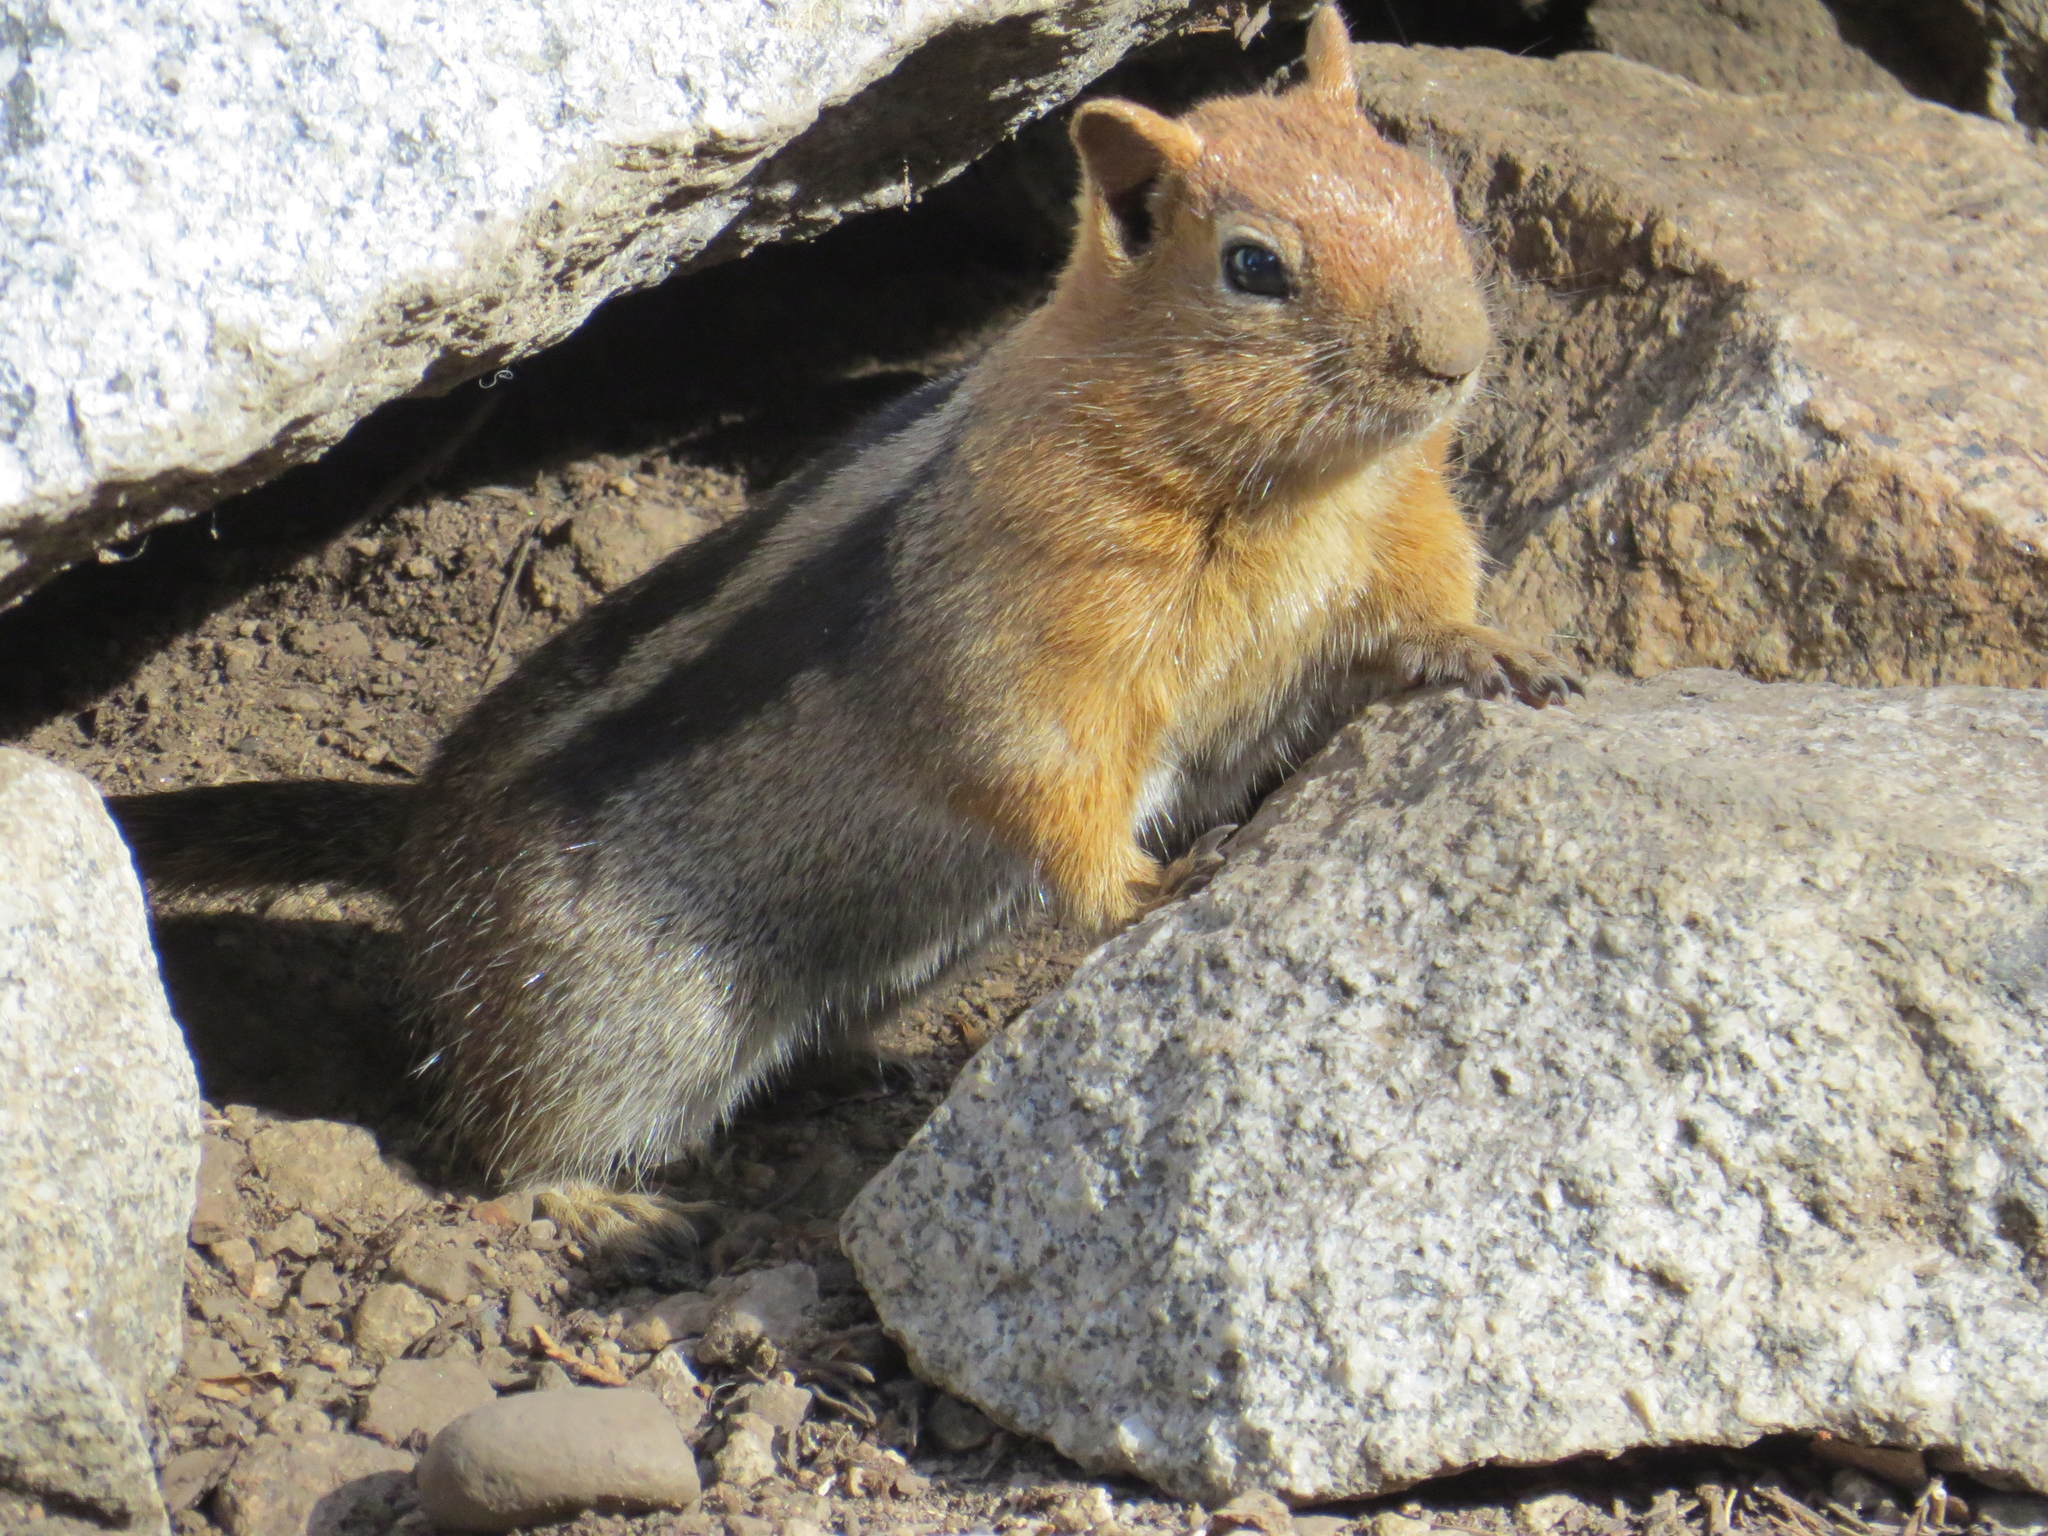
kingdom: Animalia
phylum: Chordata
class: Mammalia
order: Rodentia
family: Sciuridae
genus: Callospermophilus
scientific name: Callospermophilus lateralis
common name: Golden-mantled ground squirrel
